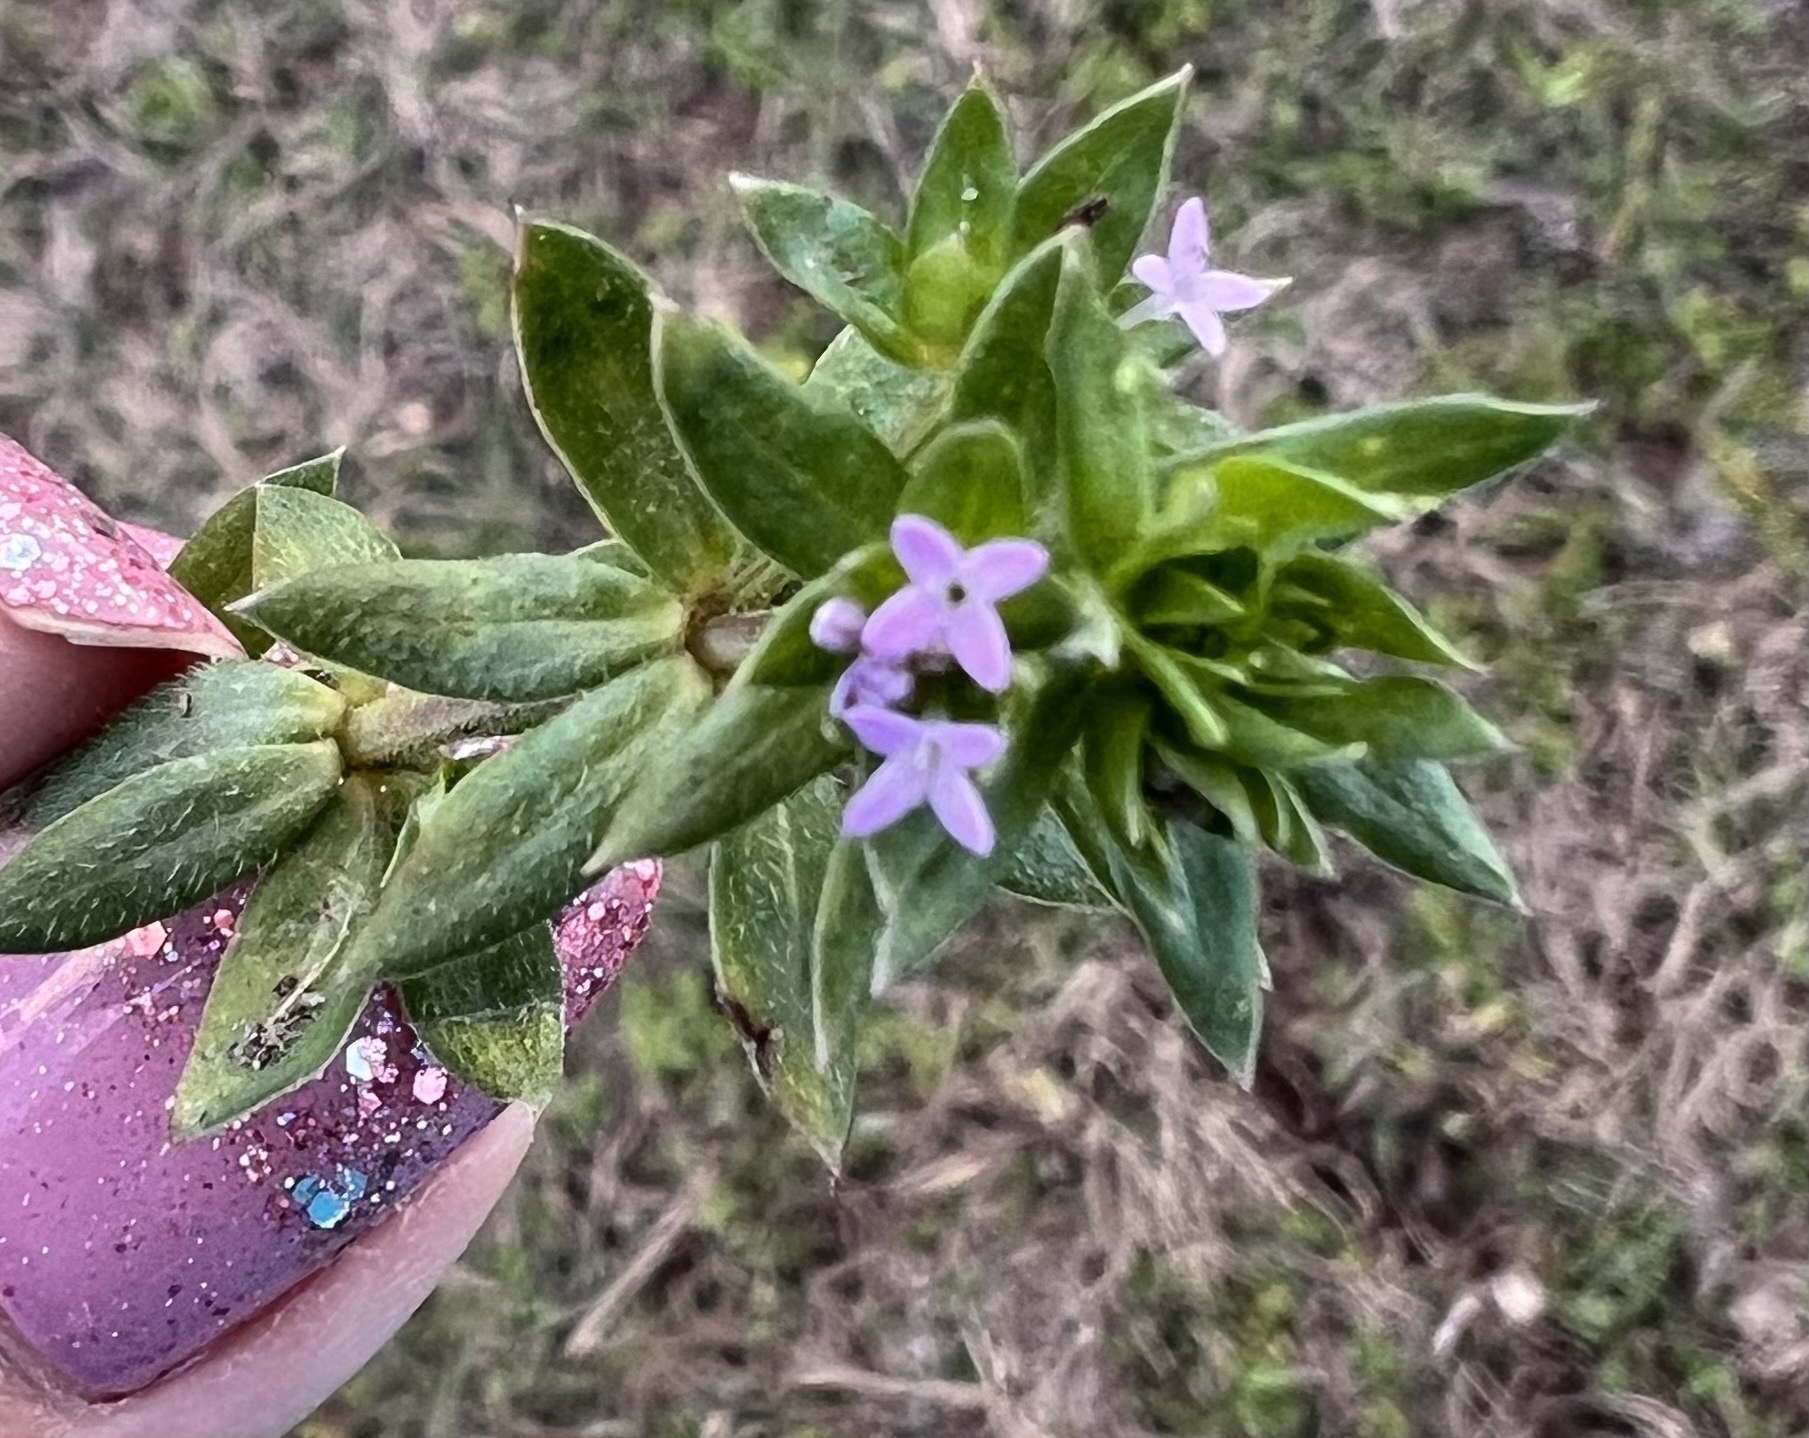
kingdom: Plantae
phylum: Tracheophyta
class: Magnoliopsida
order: Gentianales
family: Rubiaceae
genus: Sherardia
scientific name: Sherardia arvensis
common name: Field madder
